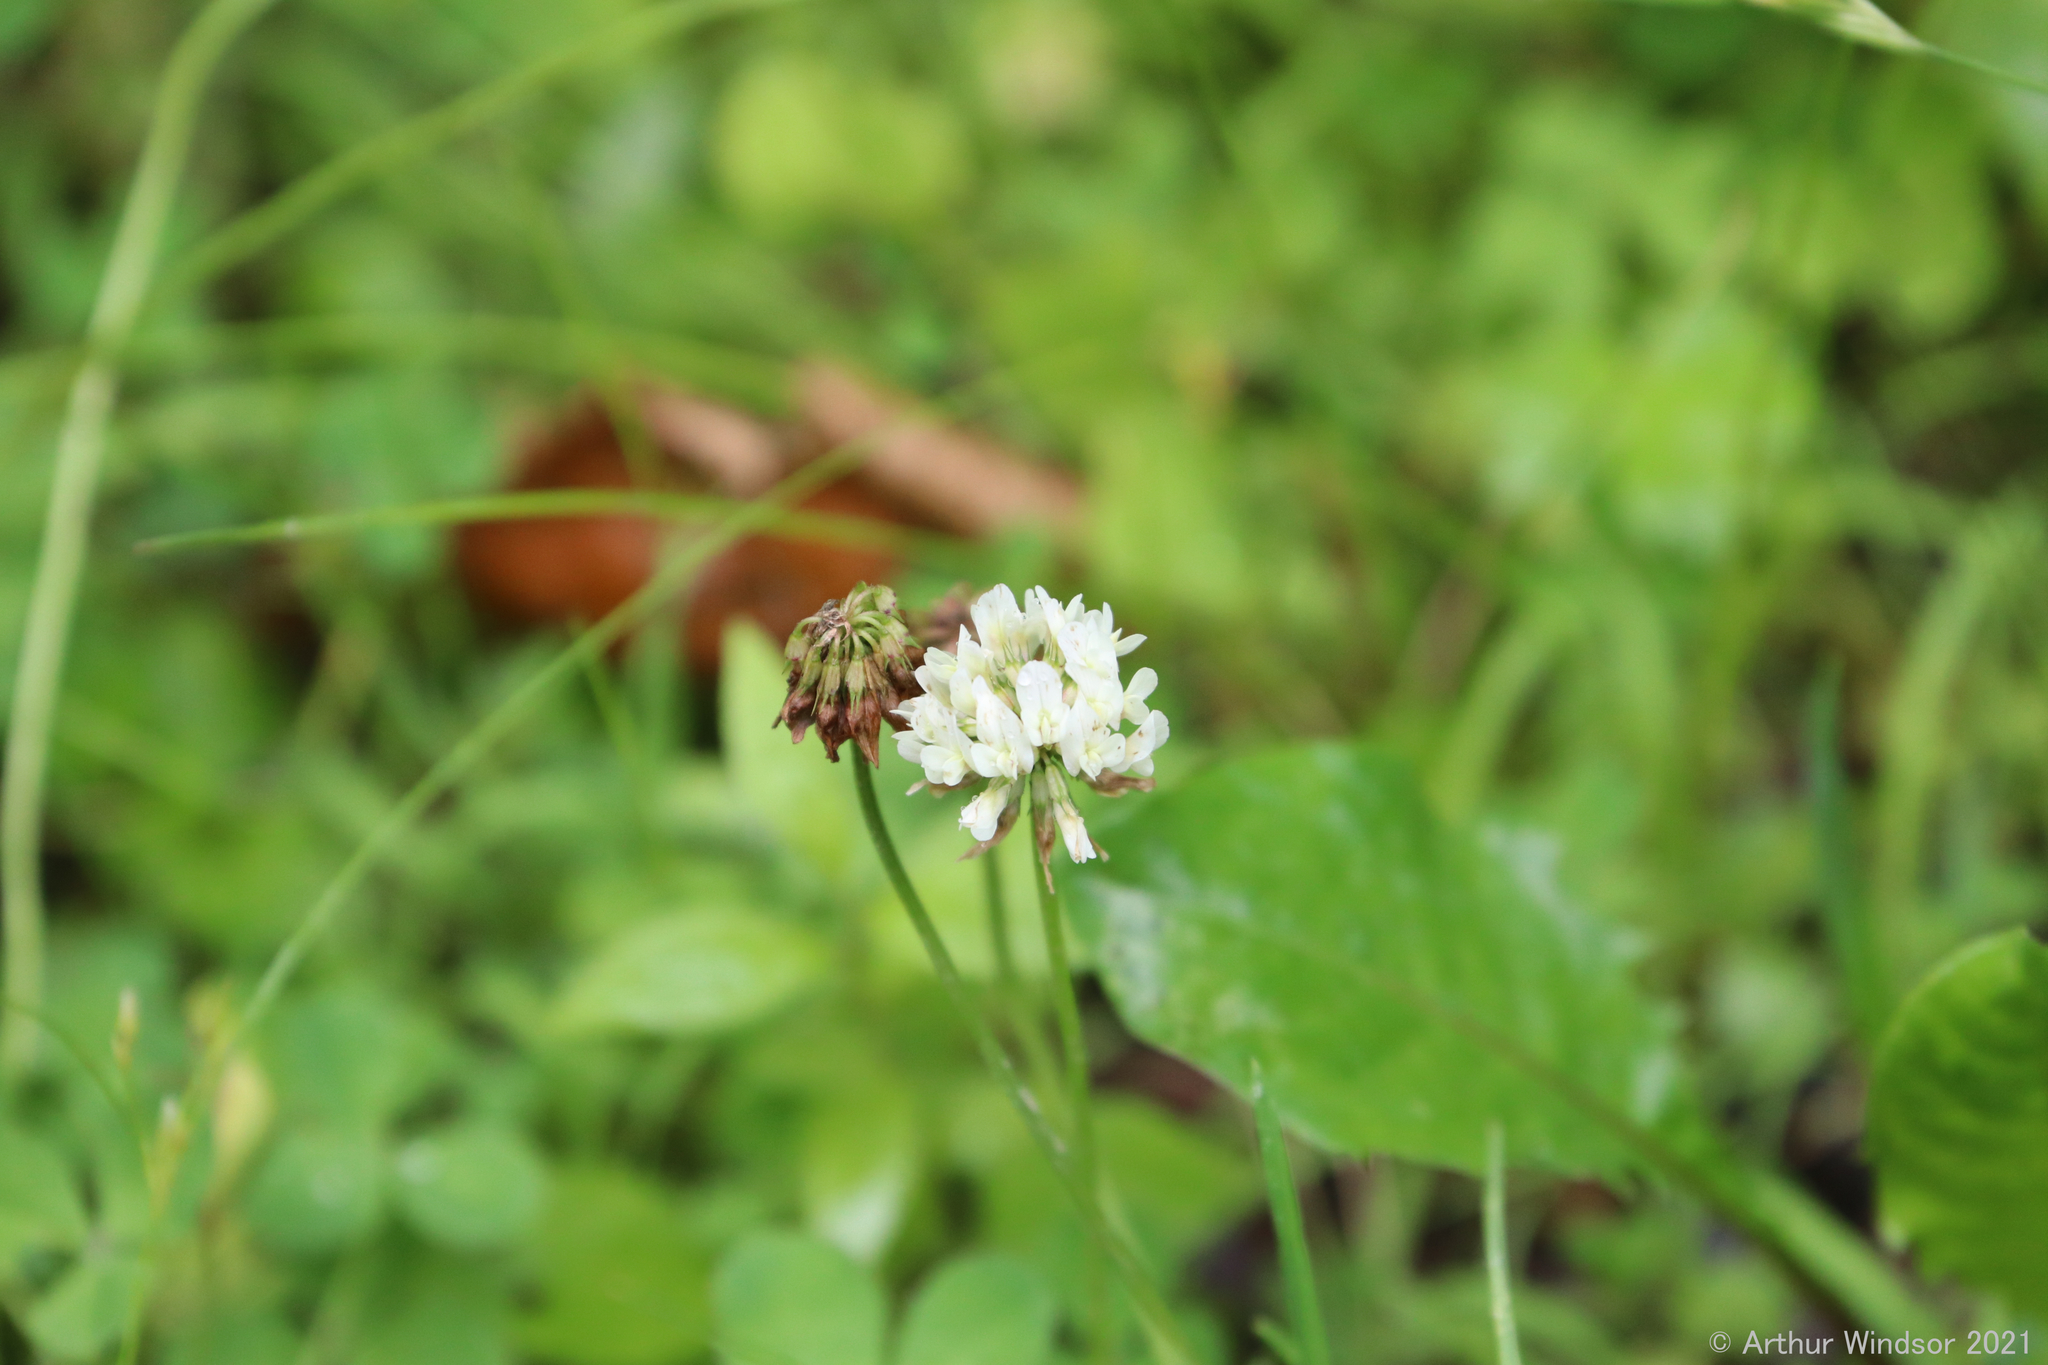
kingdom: Plantae
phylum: Tracheophyta
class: Magnoliopsida
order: Fabales
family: Fabaceae
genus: Trifolium
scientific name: Trifolium repens
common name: White clover
